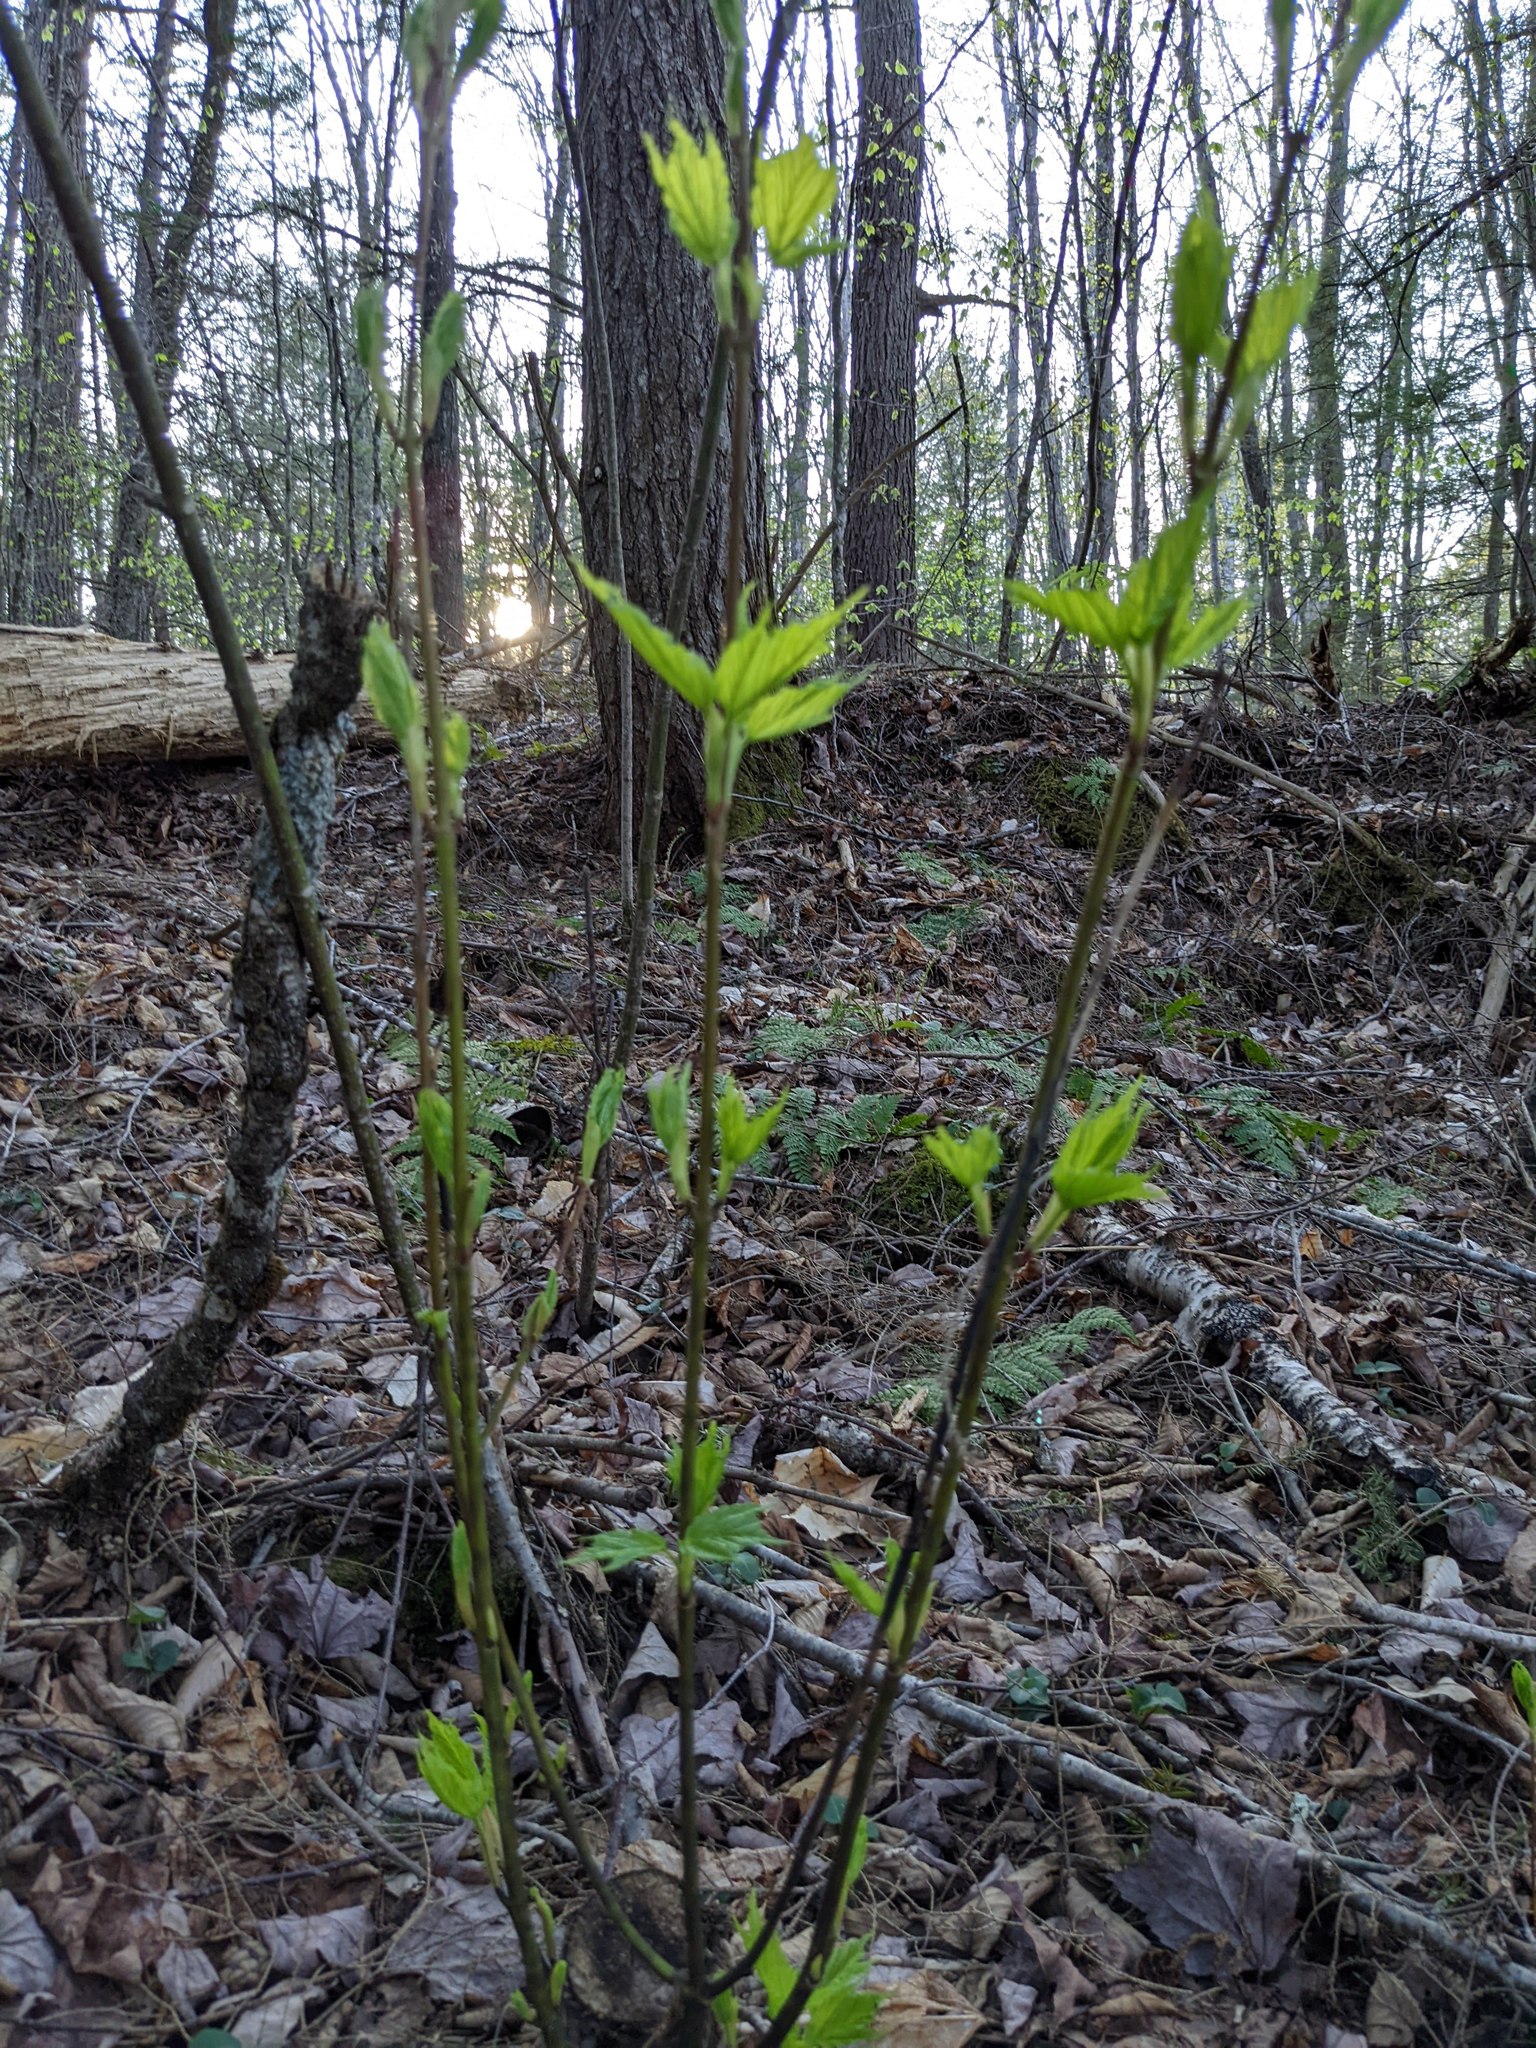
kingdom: Plantae
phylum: Tracheophyta
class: Magnoliopsida
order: Sapindales
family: Sapindaceae
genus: Acer
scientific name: Acer pensylvanicum
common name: Moosewood
